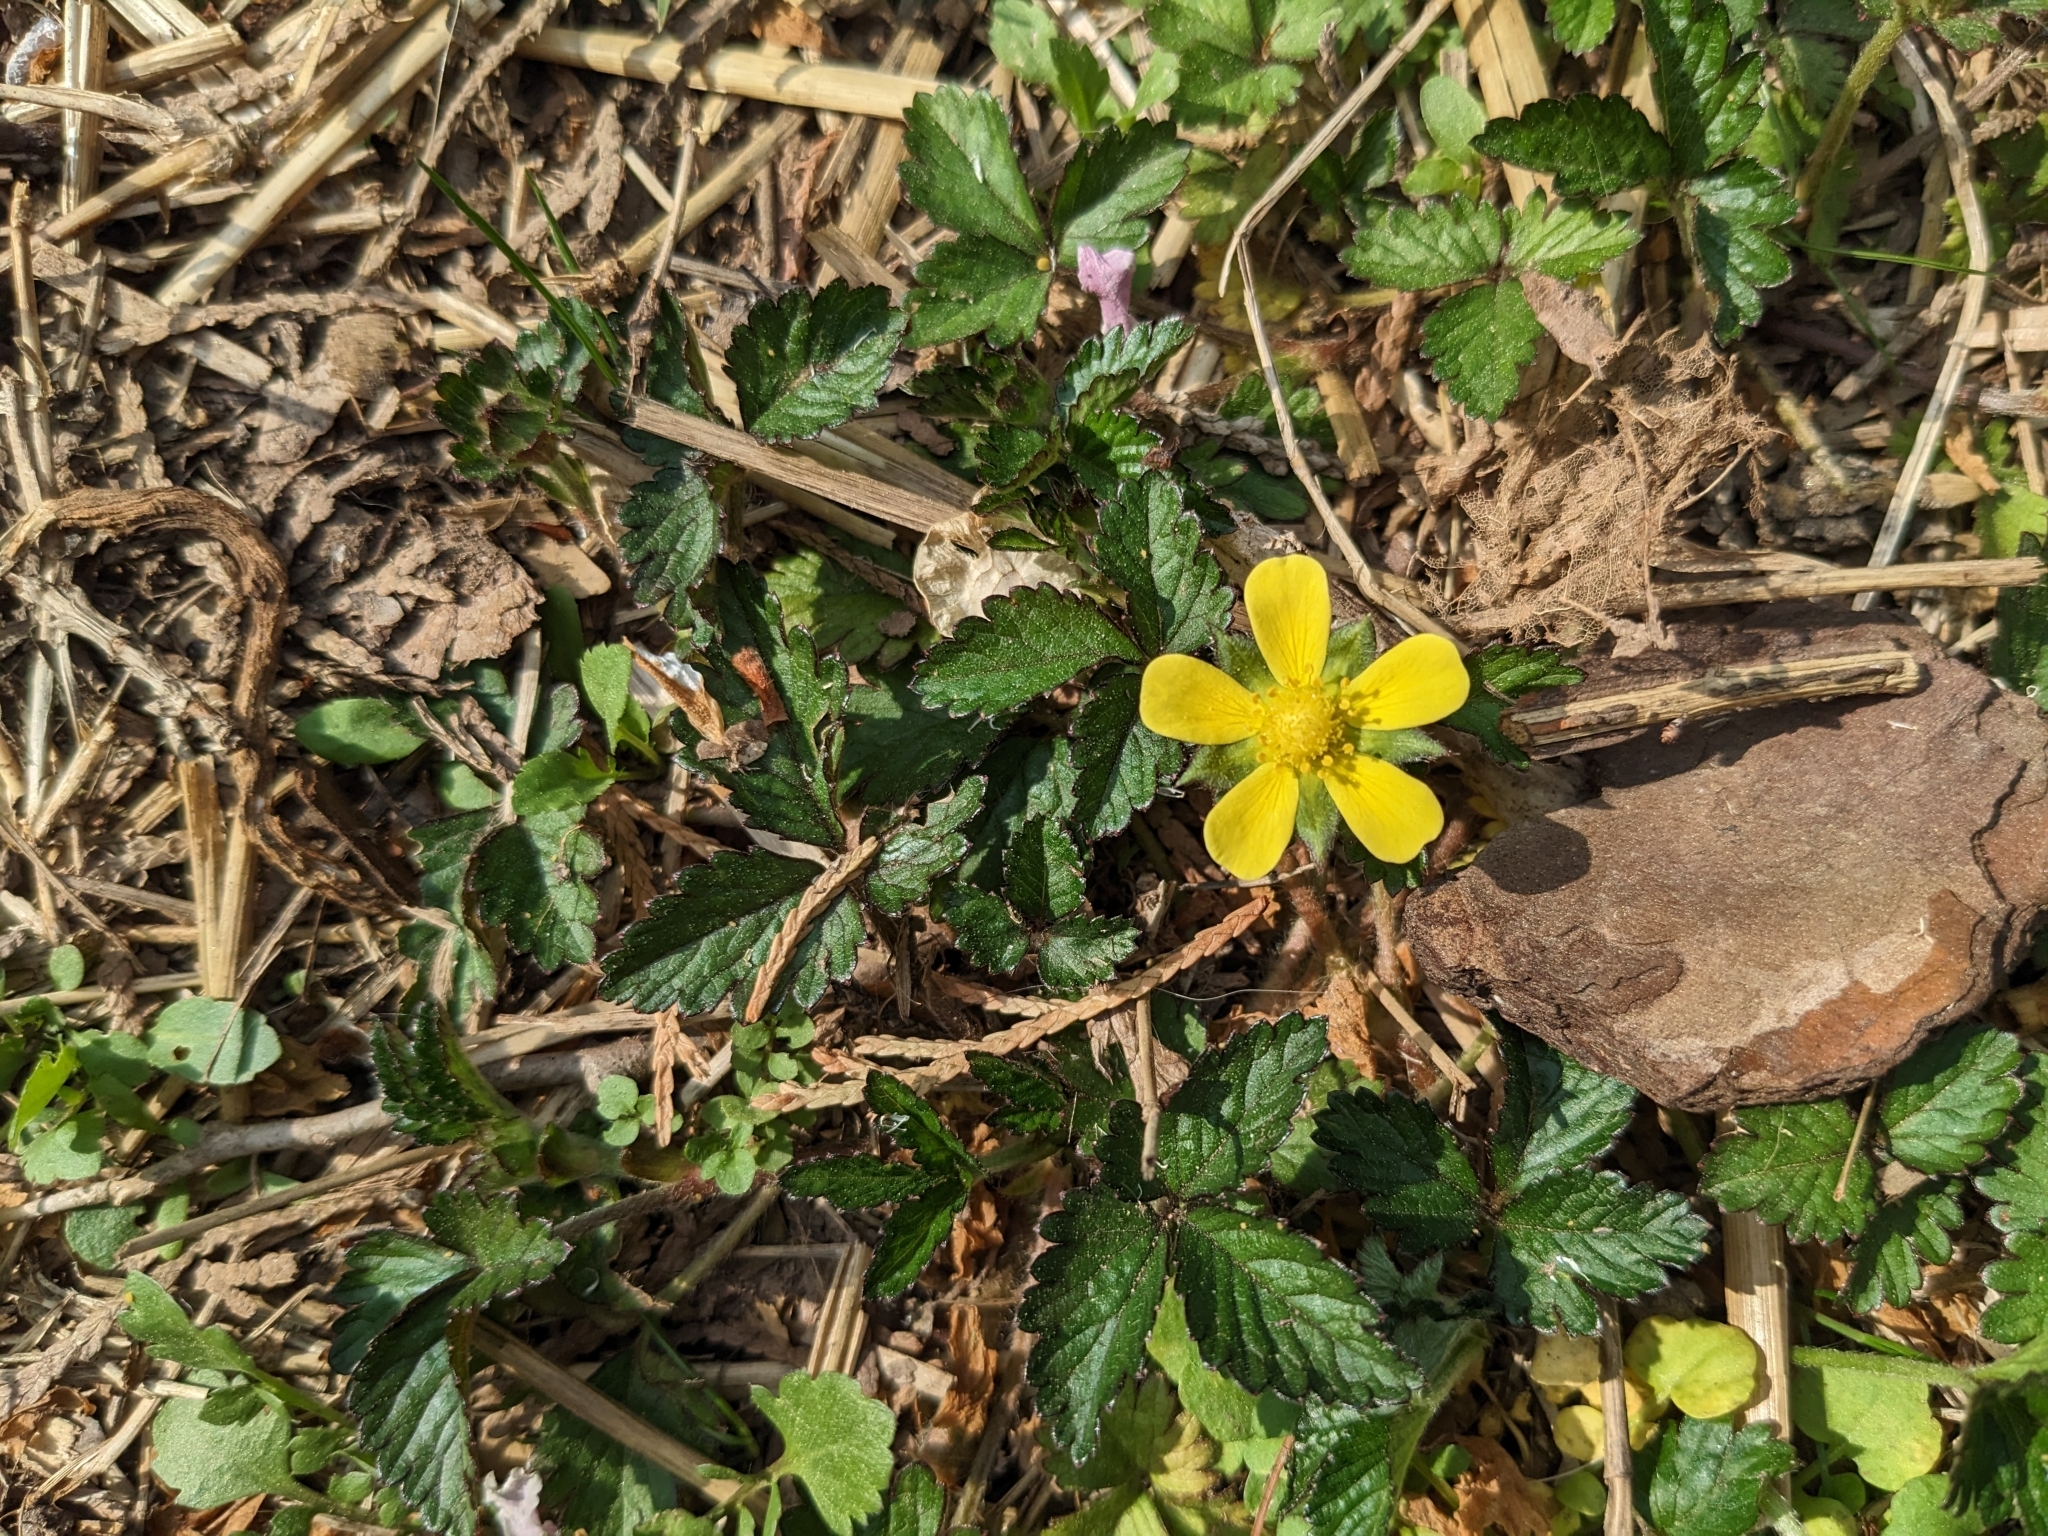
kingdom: Plantae
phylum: Tracheophyta
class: Magnoliopsida
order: Rosales
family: Rosaceae
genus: Potentilla
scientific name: Potentilla indica
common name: Yellow-flowered strawberry
